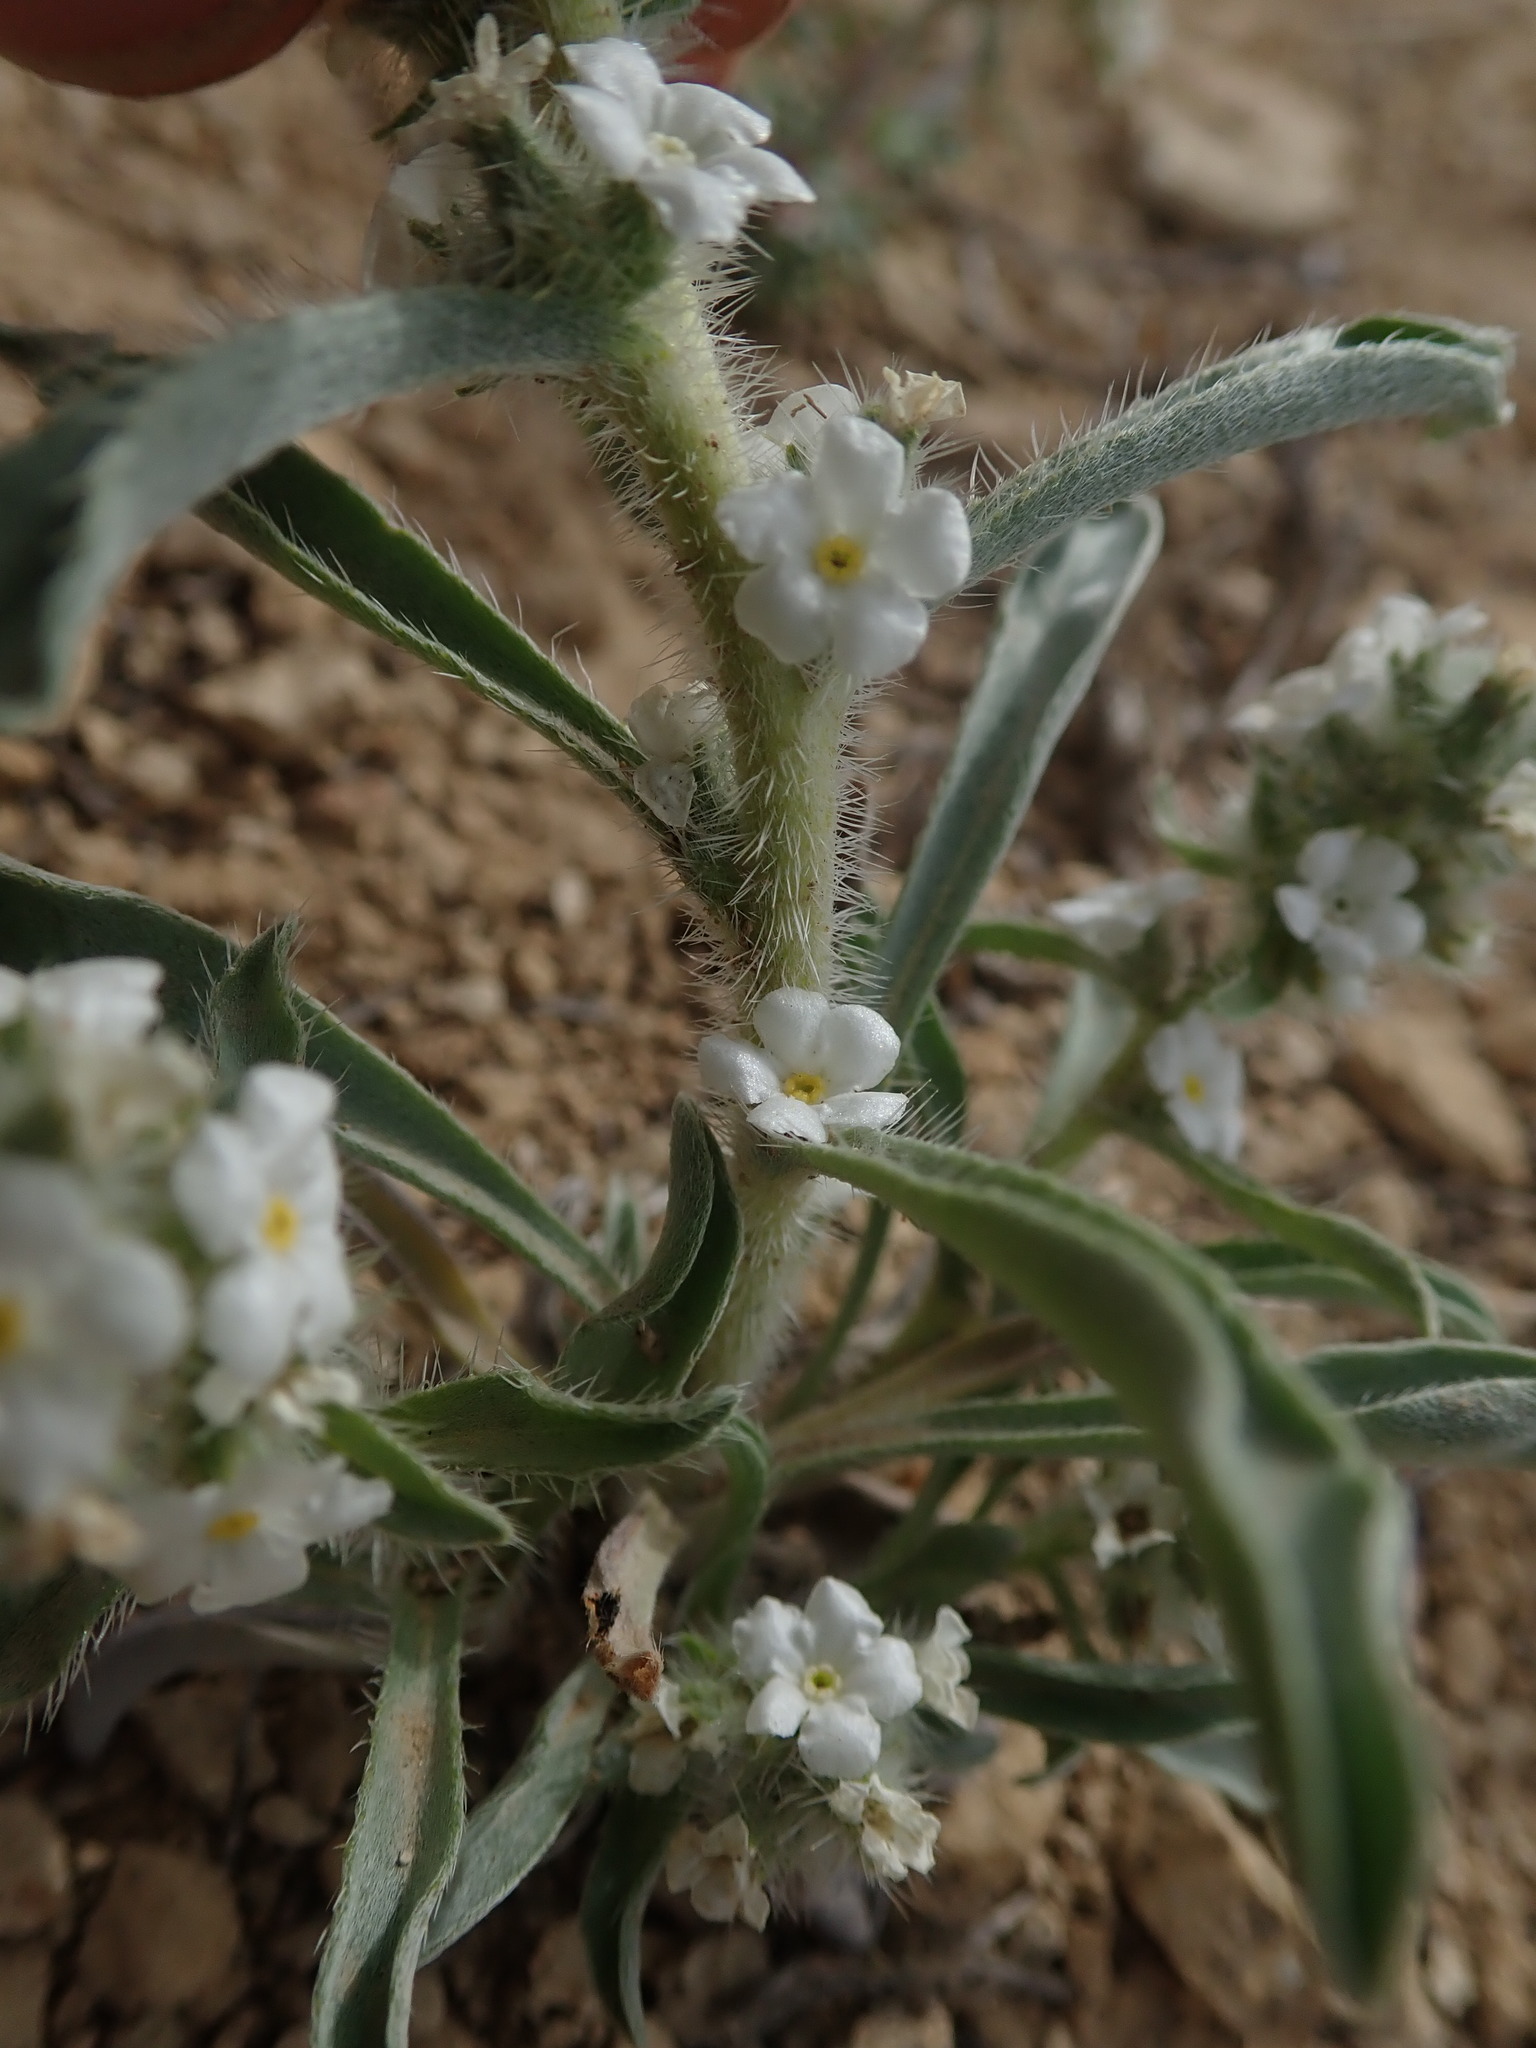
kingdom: Plantae
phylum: Tracheophyta
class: Magnoliopsida
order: Boraginales
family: Boraginaceae
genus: Oreocarya
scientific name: Oreocarya glomerata
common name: Macoun's cryptantha
